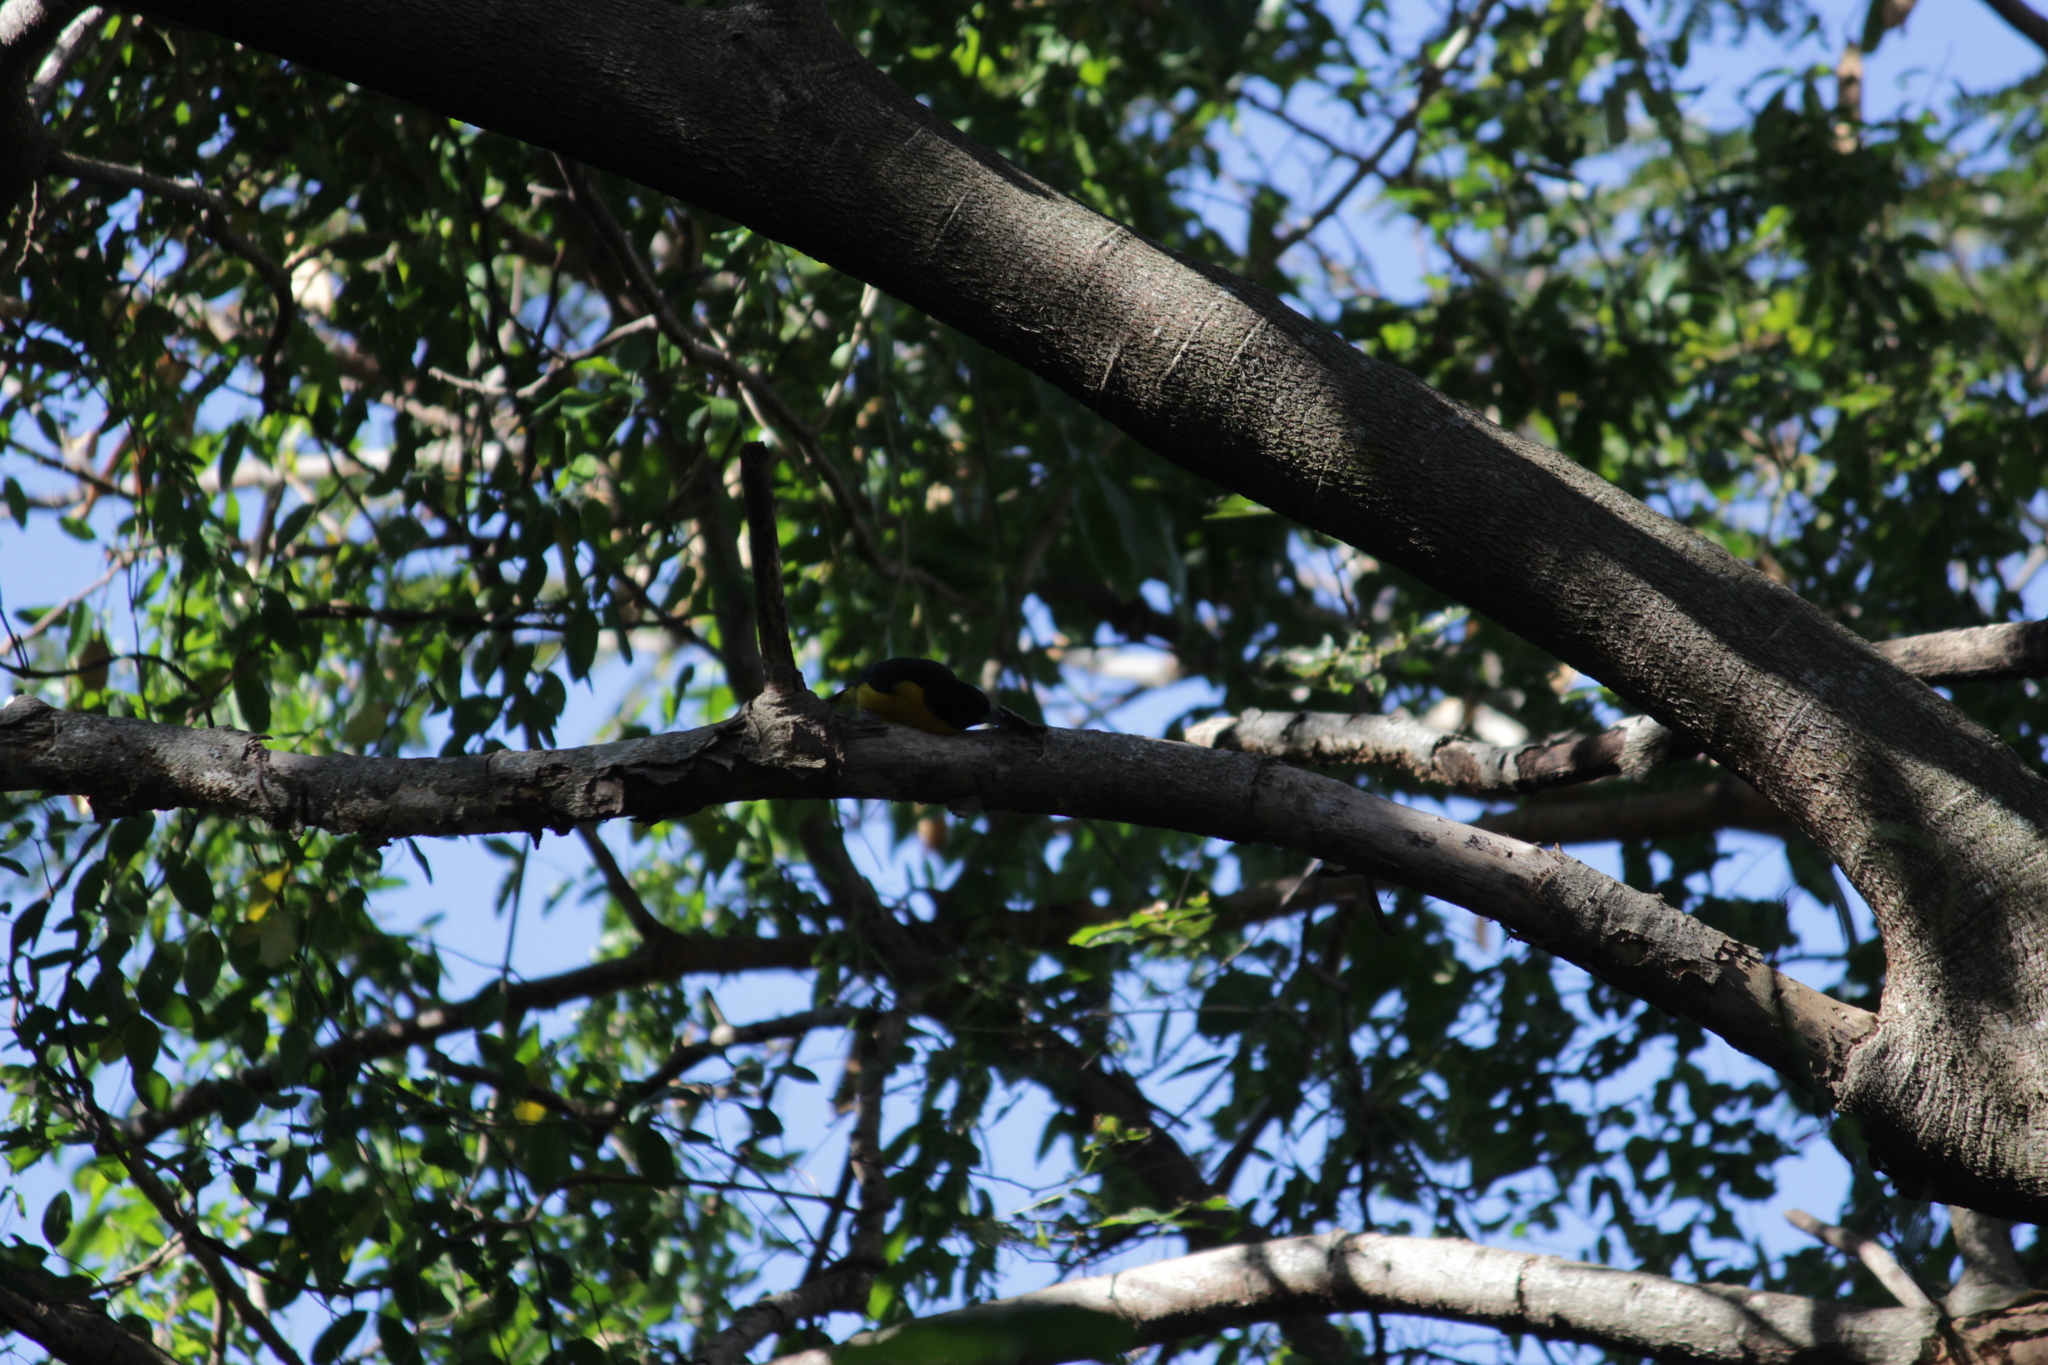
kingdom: Animalia
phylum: Chordata
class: Aves
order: Passeriformes
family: Ploceidae
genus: Ploceus
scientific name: Ploceus bicolor
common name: Dark-backed weaver
